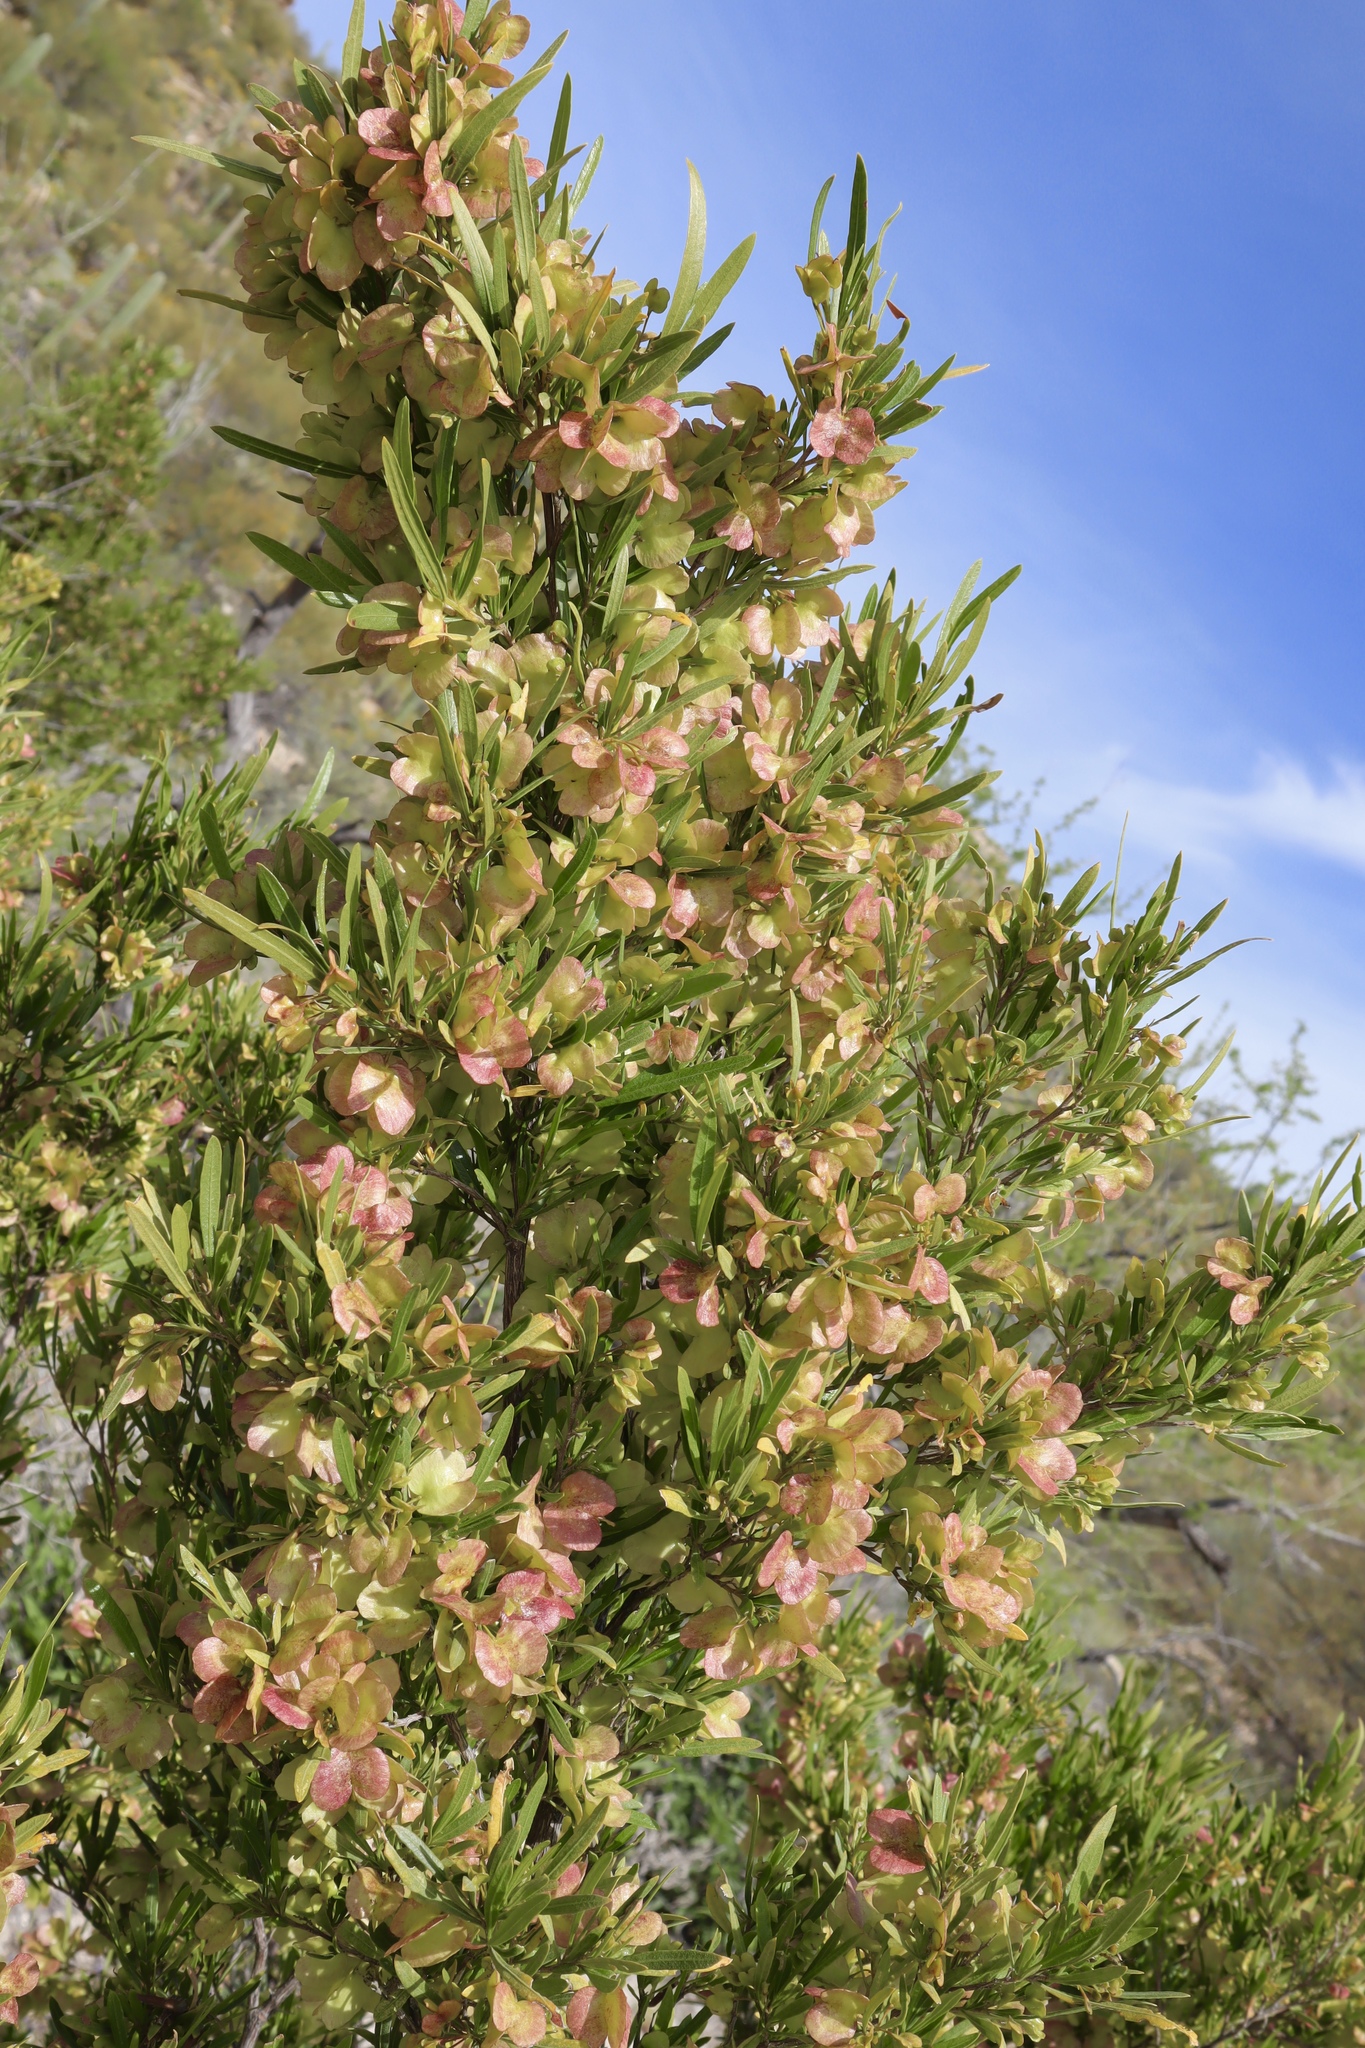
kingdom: Plantae
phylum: Tracheophyta
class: Magnoliopsida
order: Sapindales
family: Sapindaceae
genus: Dodonaea
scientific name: Dodonaea viscosa
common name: Hopbush
